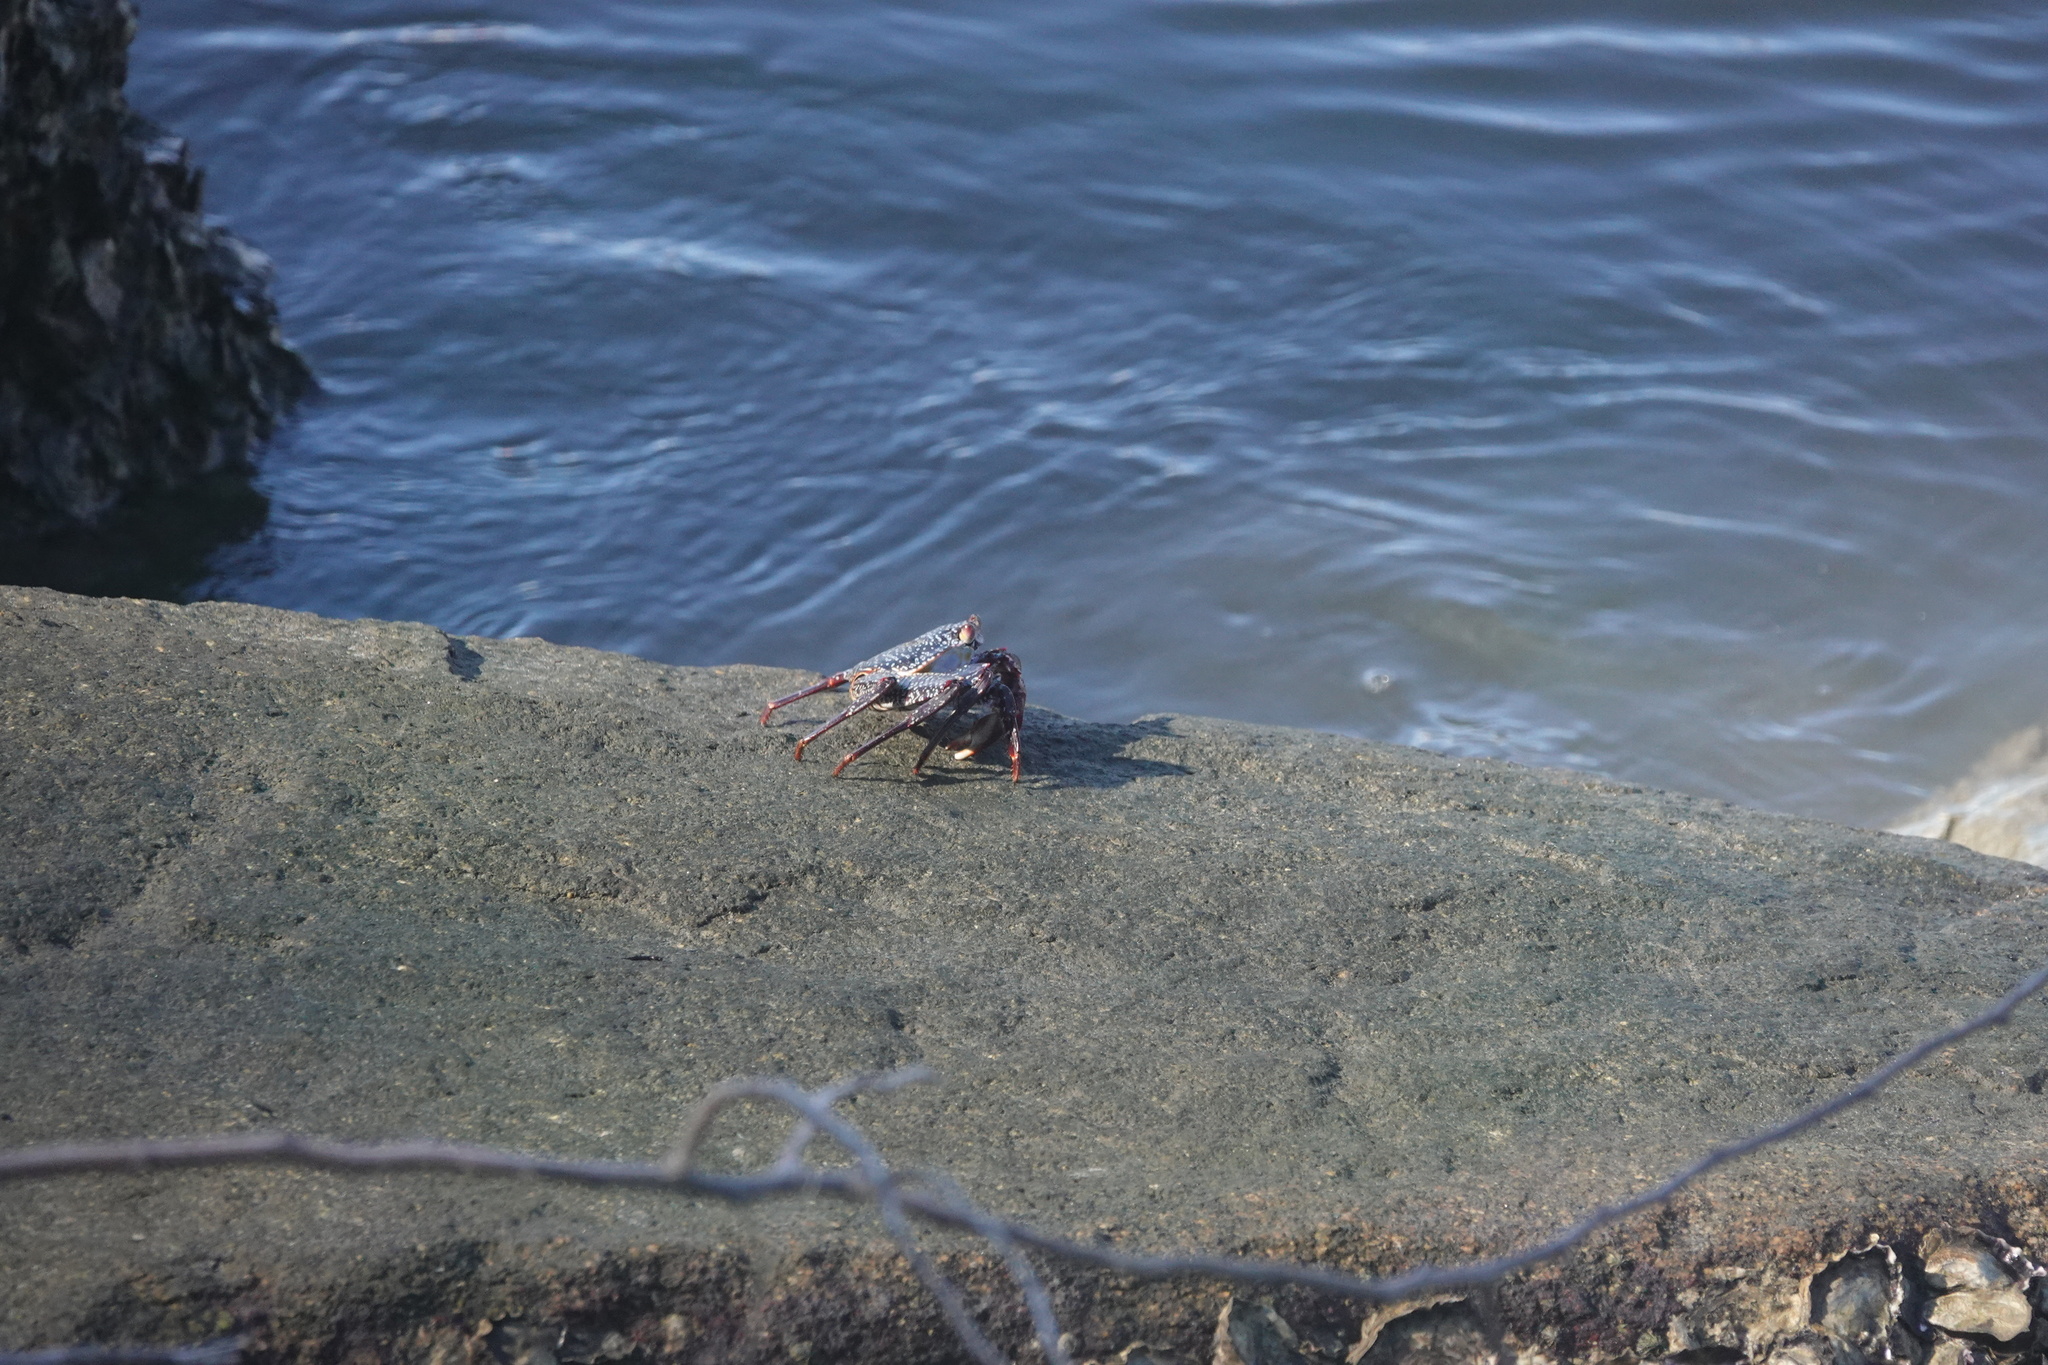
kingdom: Animalia
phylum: Arthropoda
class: Malacostraca
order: Decapoda
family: Grapsidae
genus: Grapsus
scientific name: Grapsus grapsus
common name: Sally lightfoot
